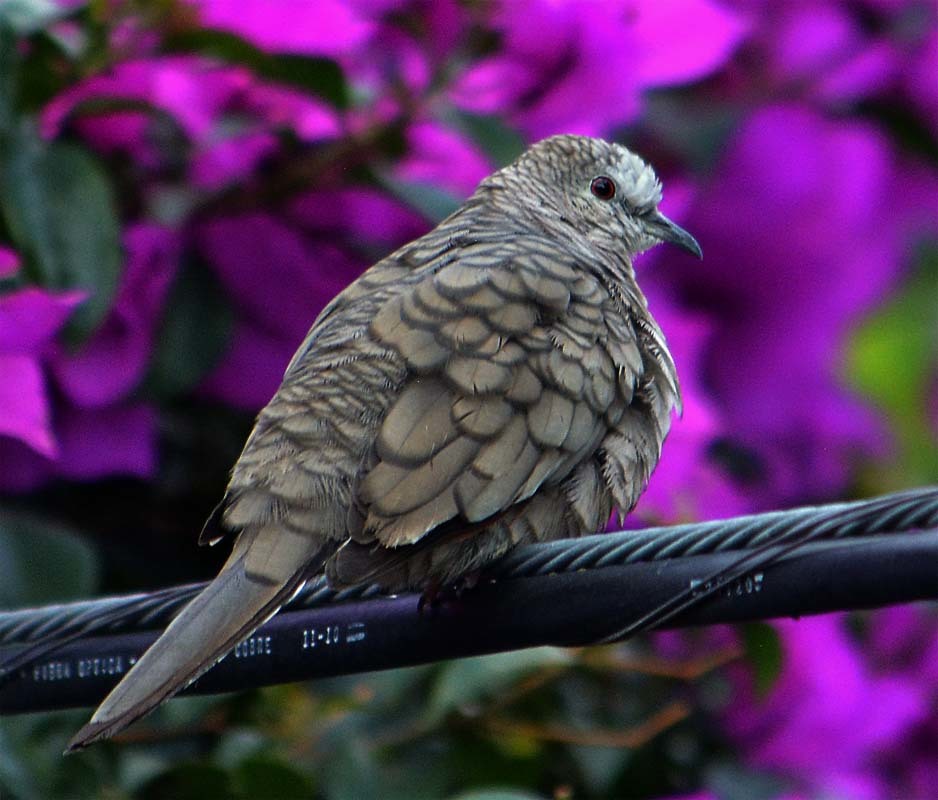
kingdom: Animalia
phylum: Chordata
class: Aves
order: Columbiformes
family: Columbidae
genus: Columbina
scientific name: Columbina inca
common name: Inca dove
